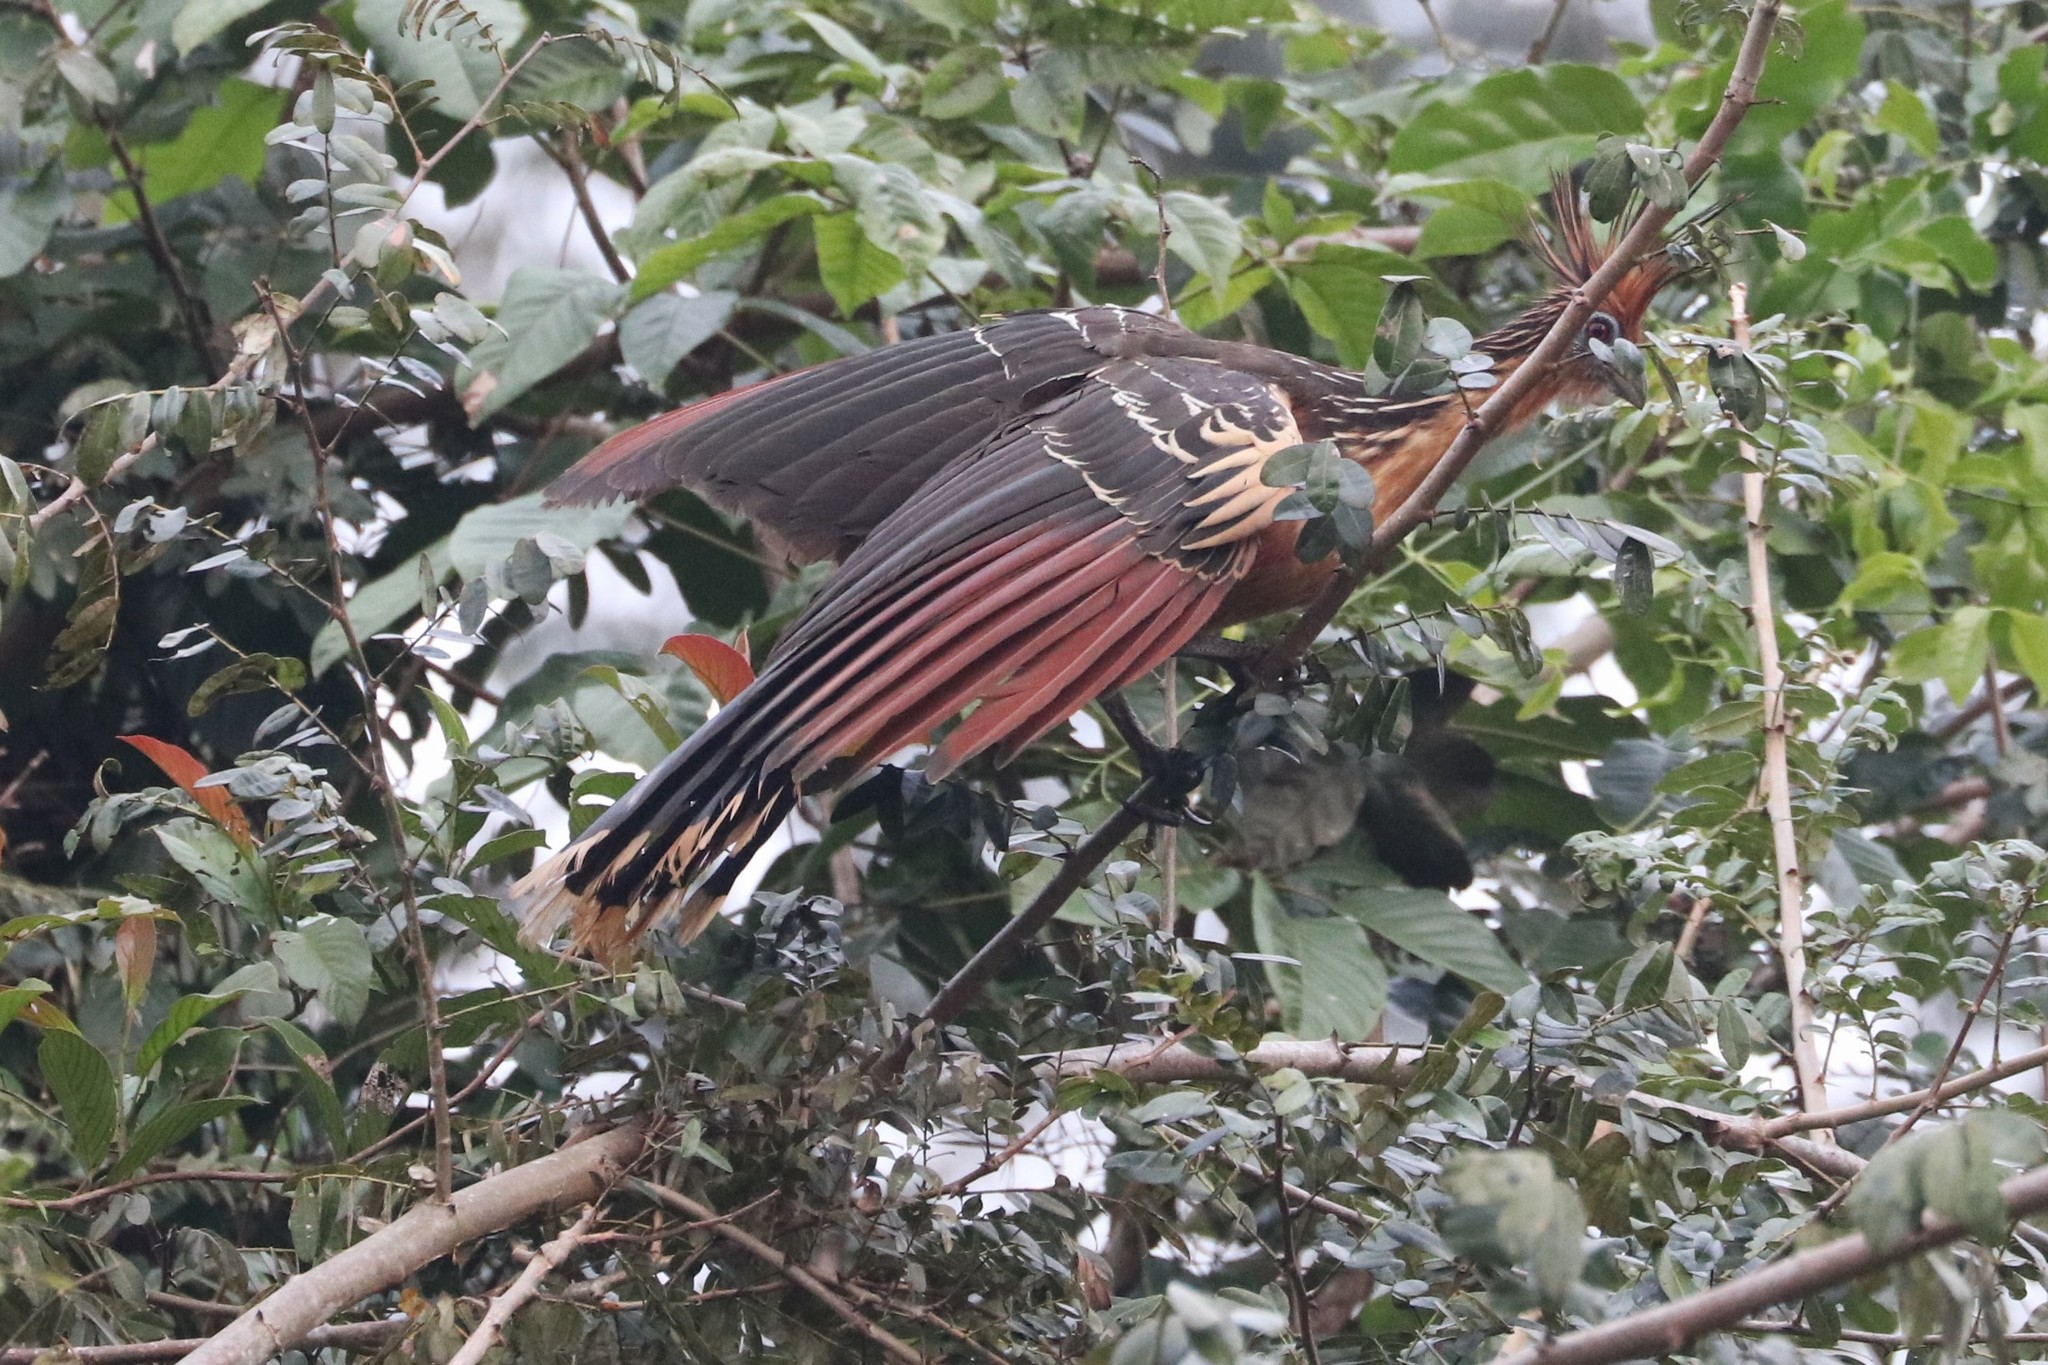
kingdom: Animalia
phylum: Chordata
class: Aves
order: Opisthocomiformes
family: Opisthocomidae
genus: Opisthocomus
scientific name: Opisthocomus hoazin
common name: Hoatzin
